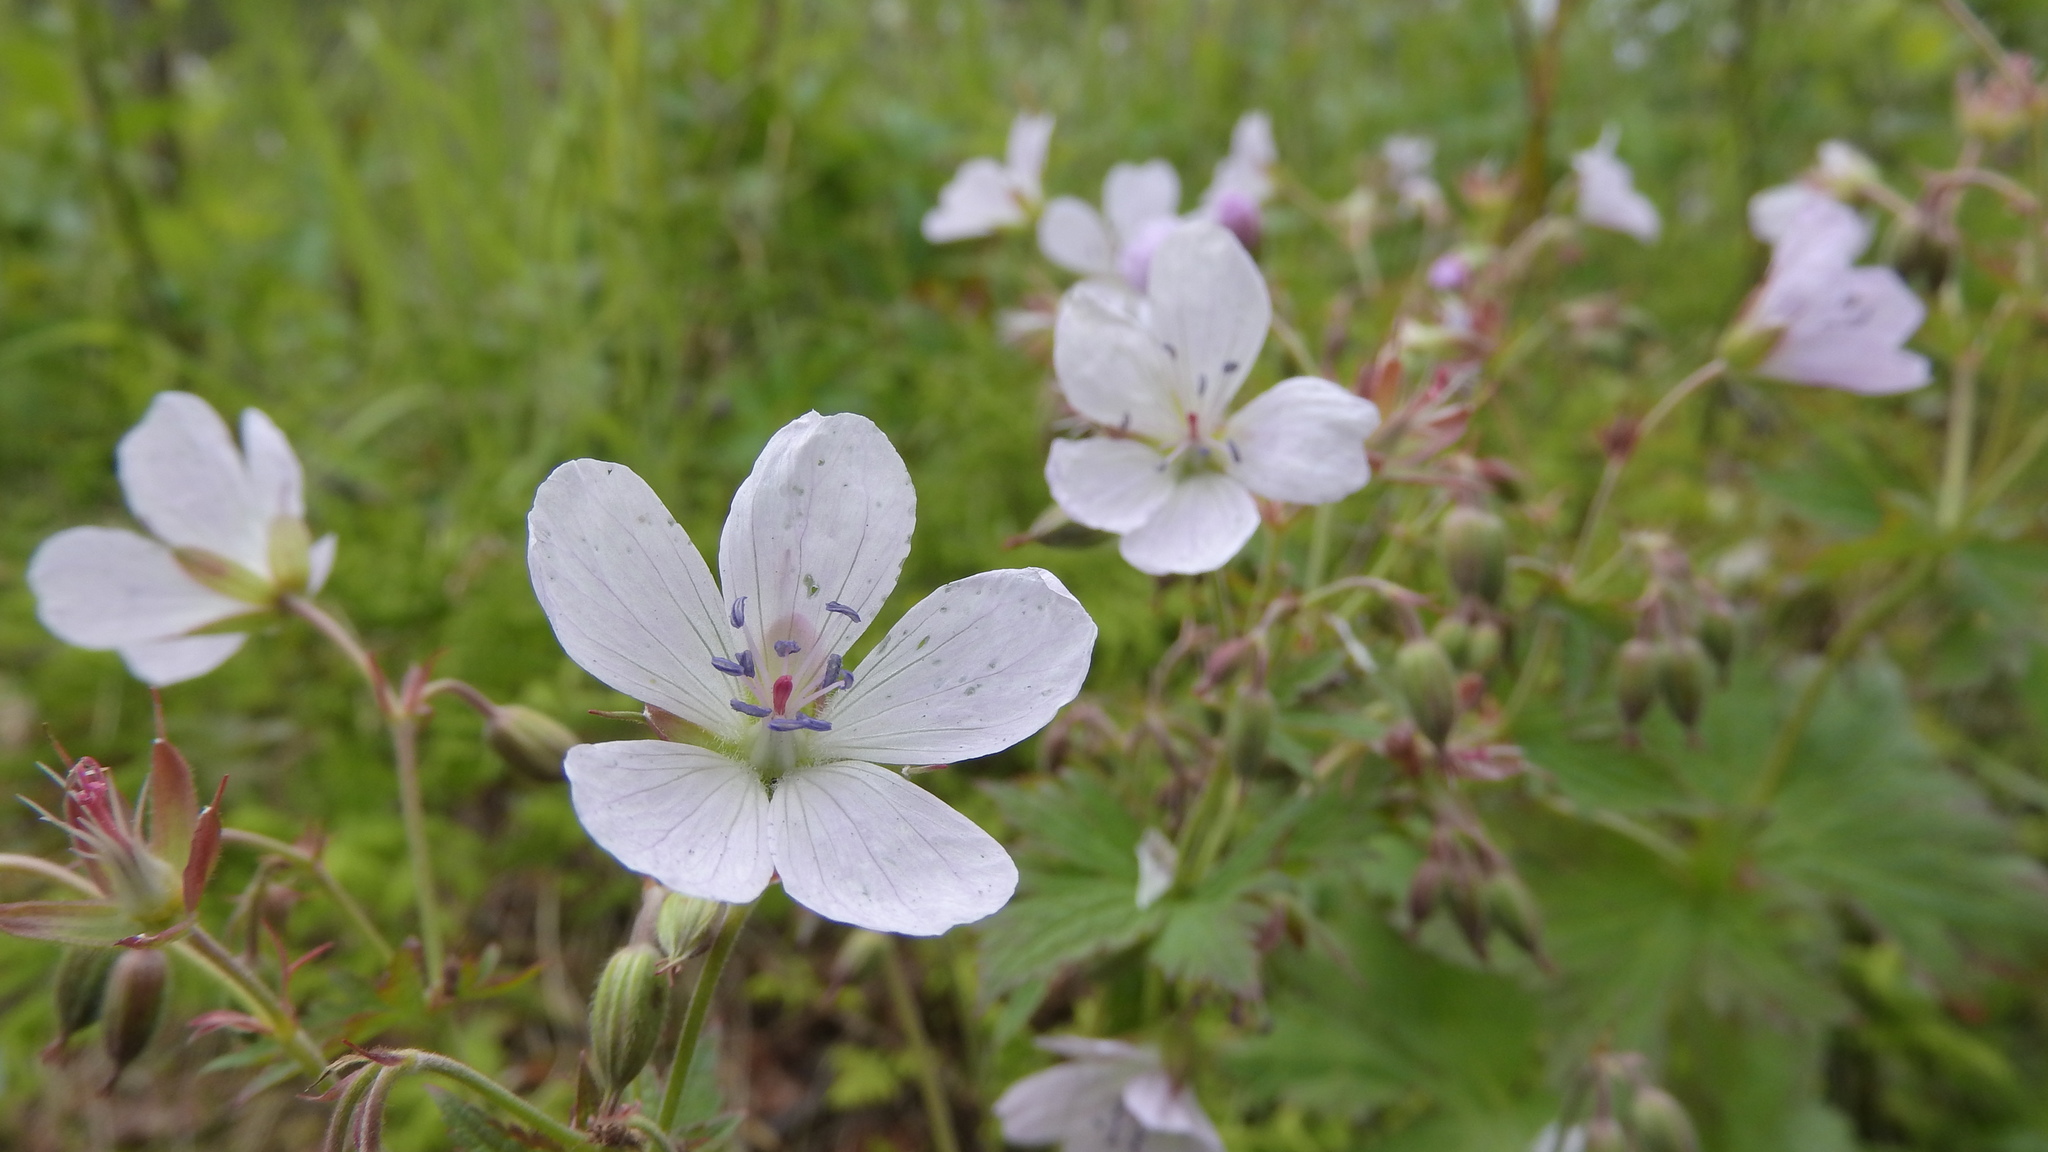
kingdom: Plantae
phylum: Tracheophyta
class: Magnoliopsida
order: Geraniales
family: Geraniaceae
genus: Geranium
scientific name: Geranium sylvaticum
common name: Wood crane's-bill
